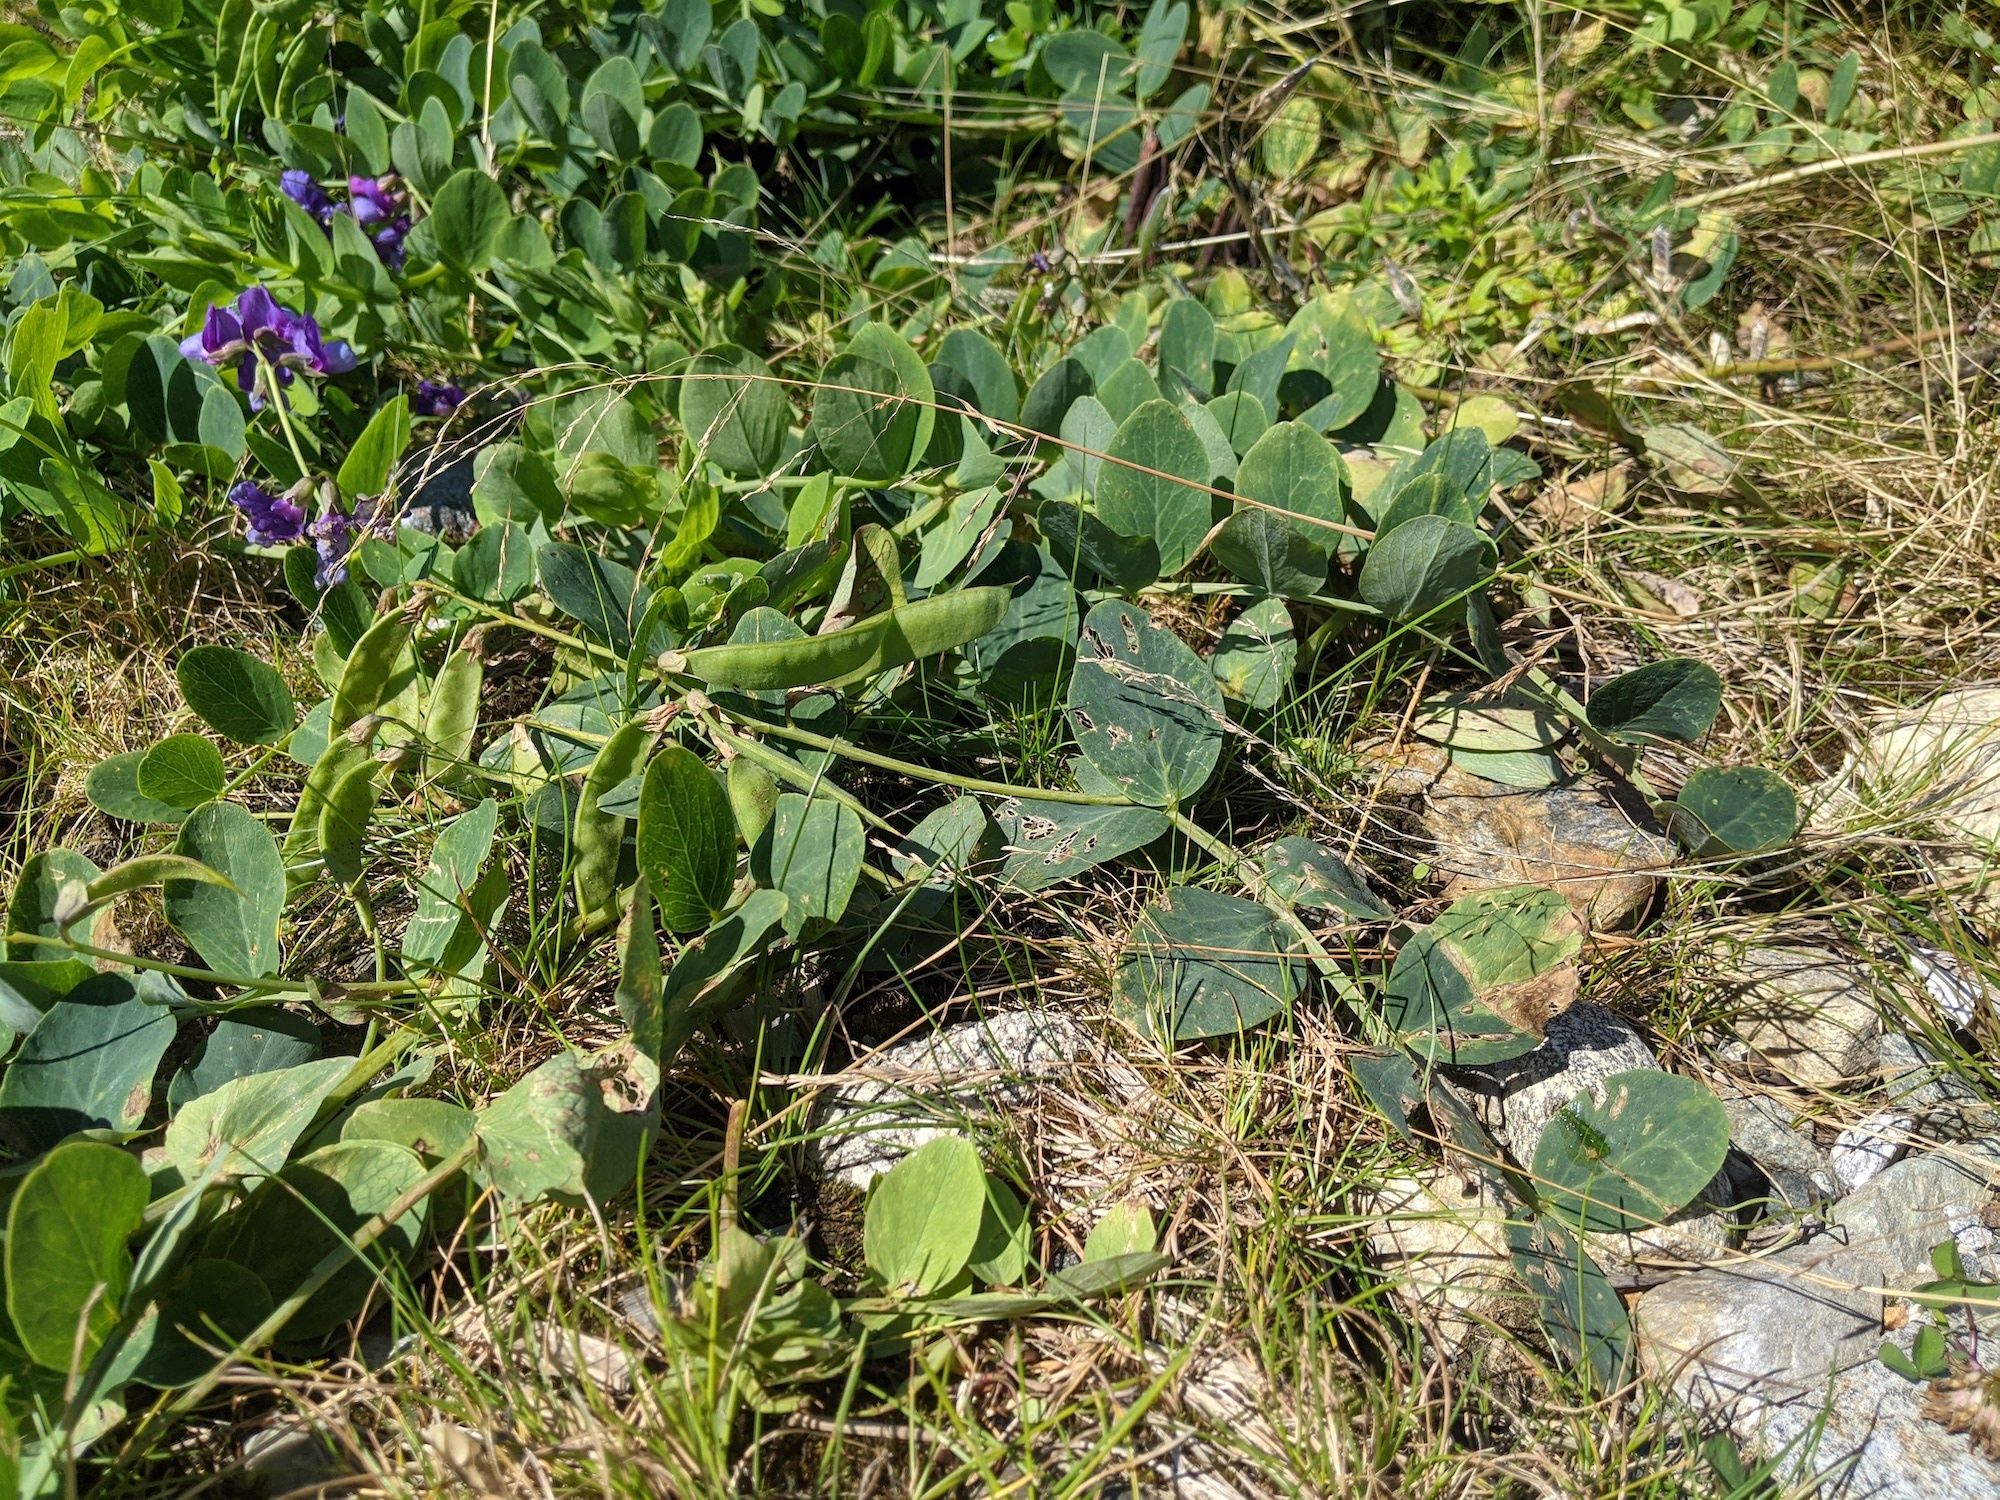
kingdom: Plantae
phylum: Tracheophyta
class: Magnoliopsida
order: Fabales
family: Fabaceae
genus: Lathyrus
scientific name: Lathyrus japonicus
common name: Sea pea
